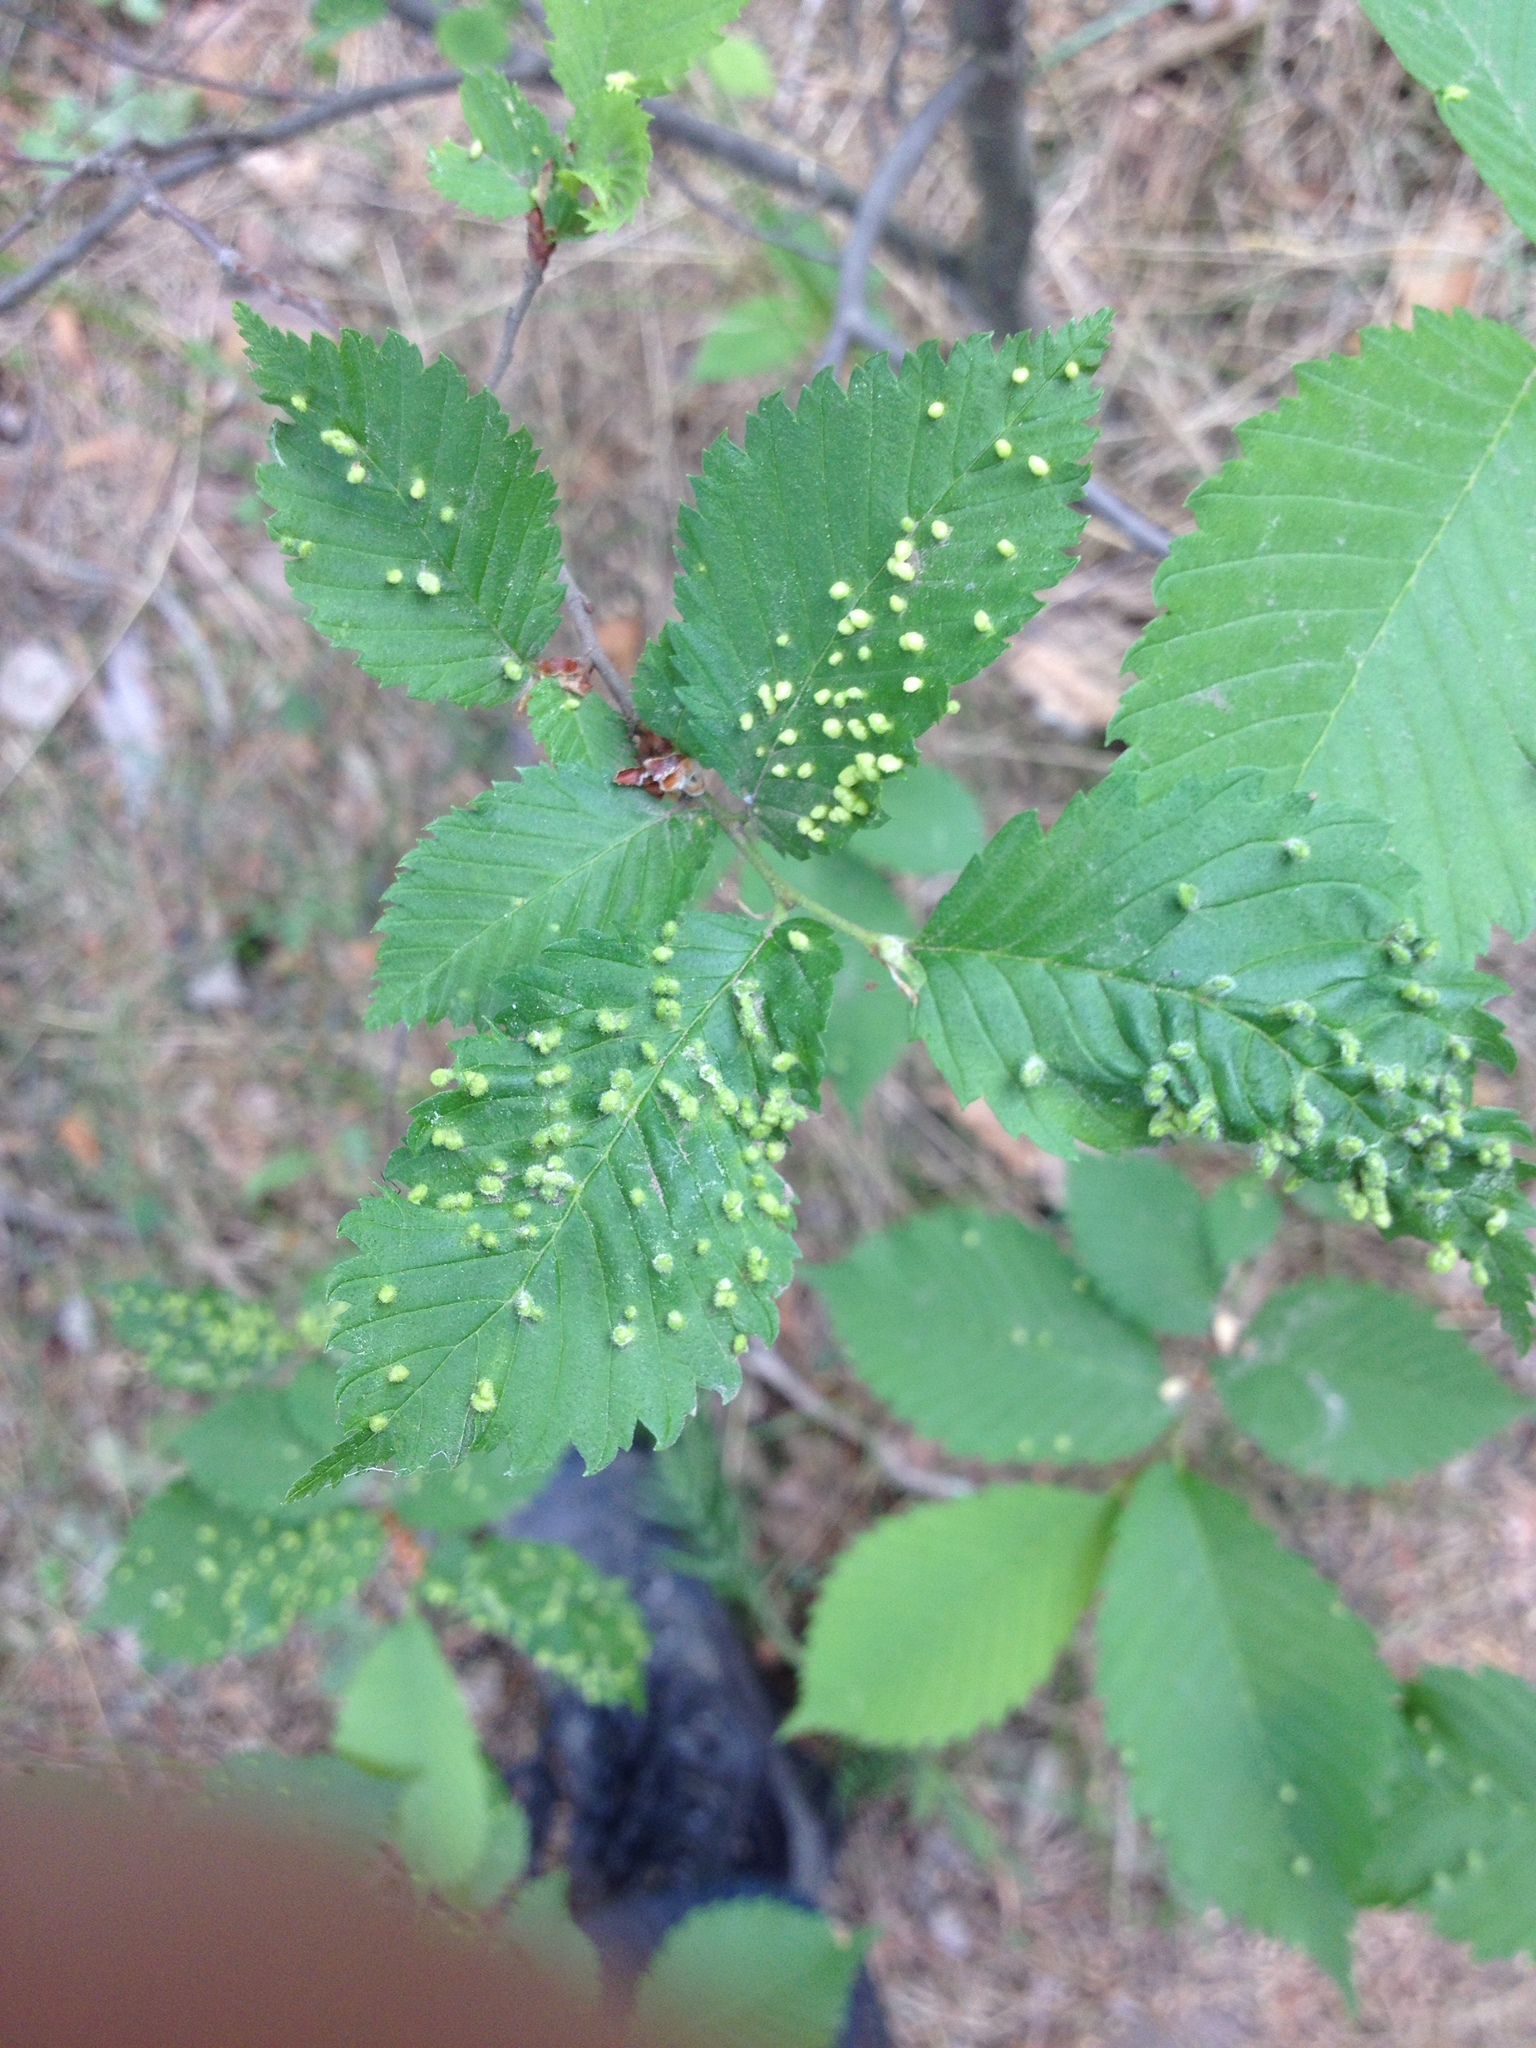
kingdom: Animalia
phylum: Arthropoda
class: Arachnida
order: Trombidiformes
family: Eriophyidae
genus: Aceria
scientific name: Aceria brevipunctata
